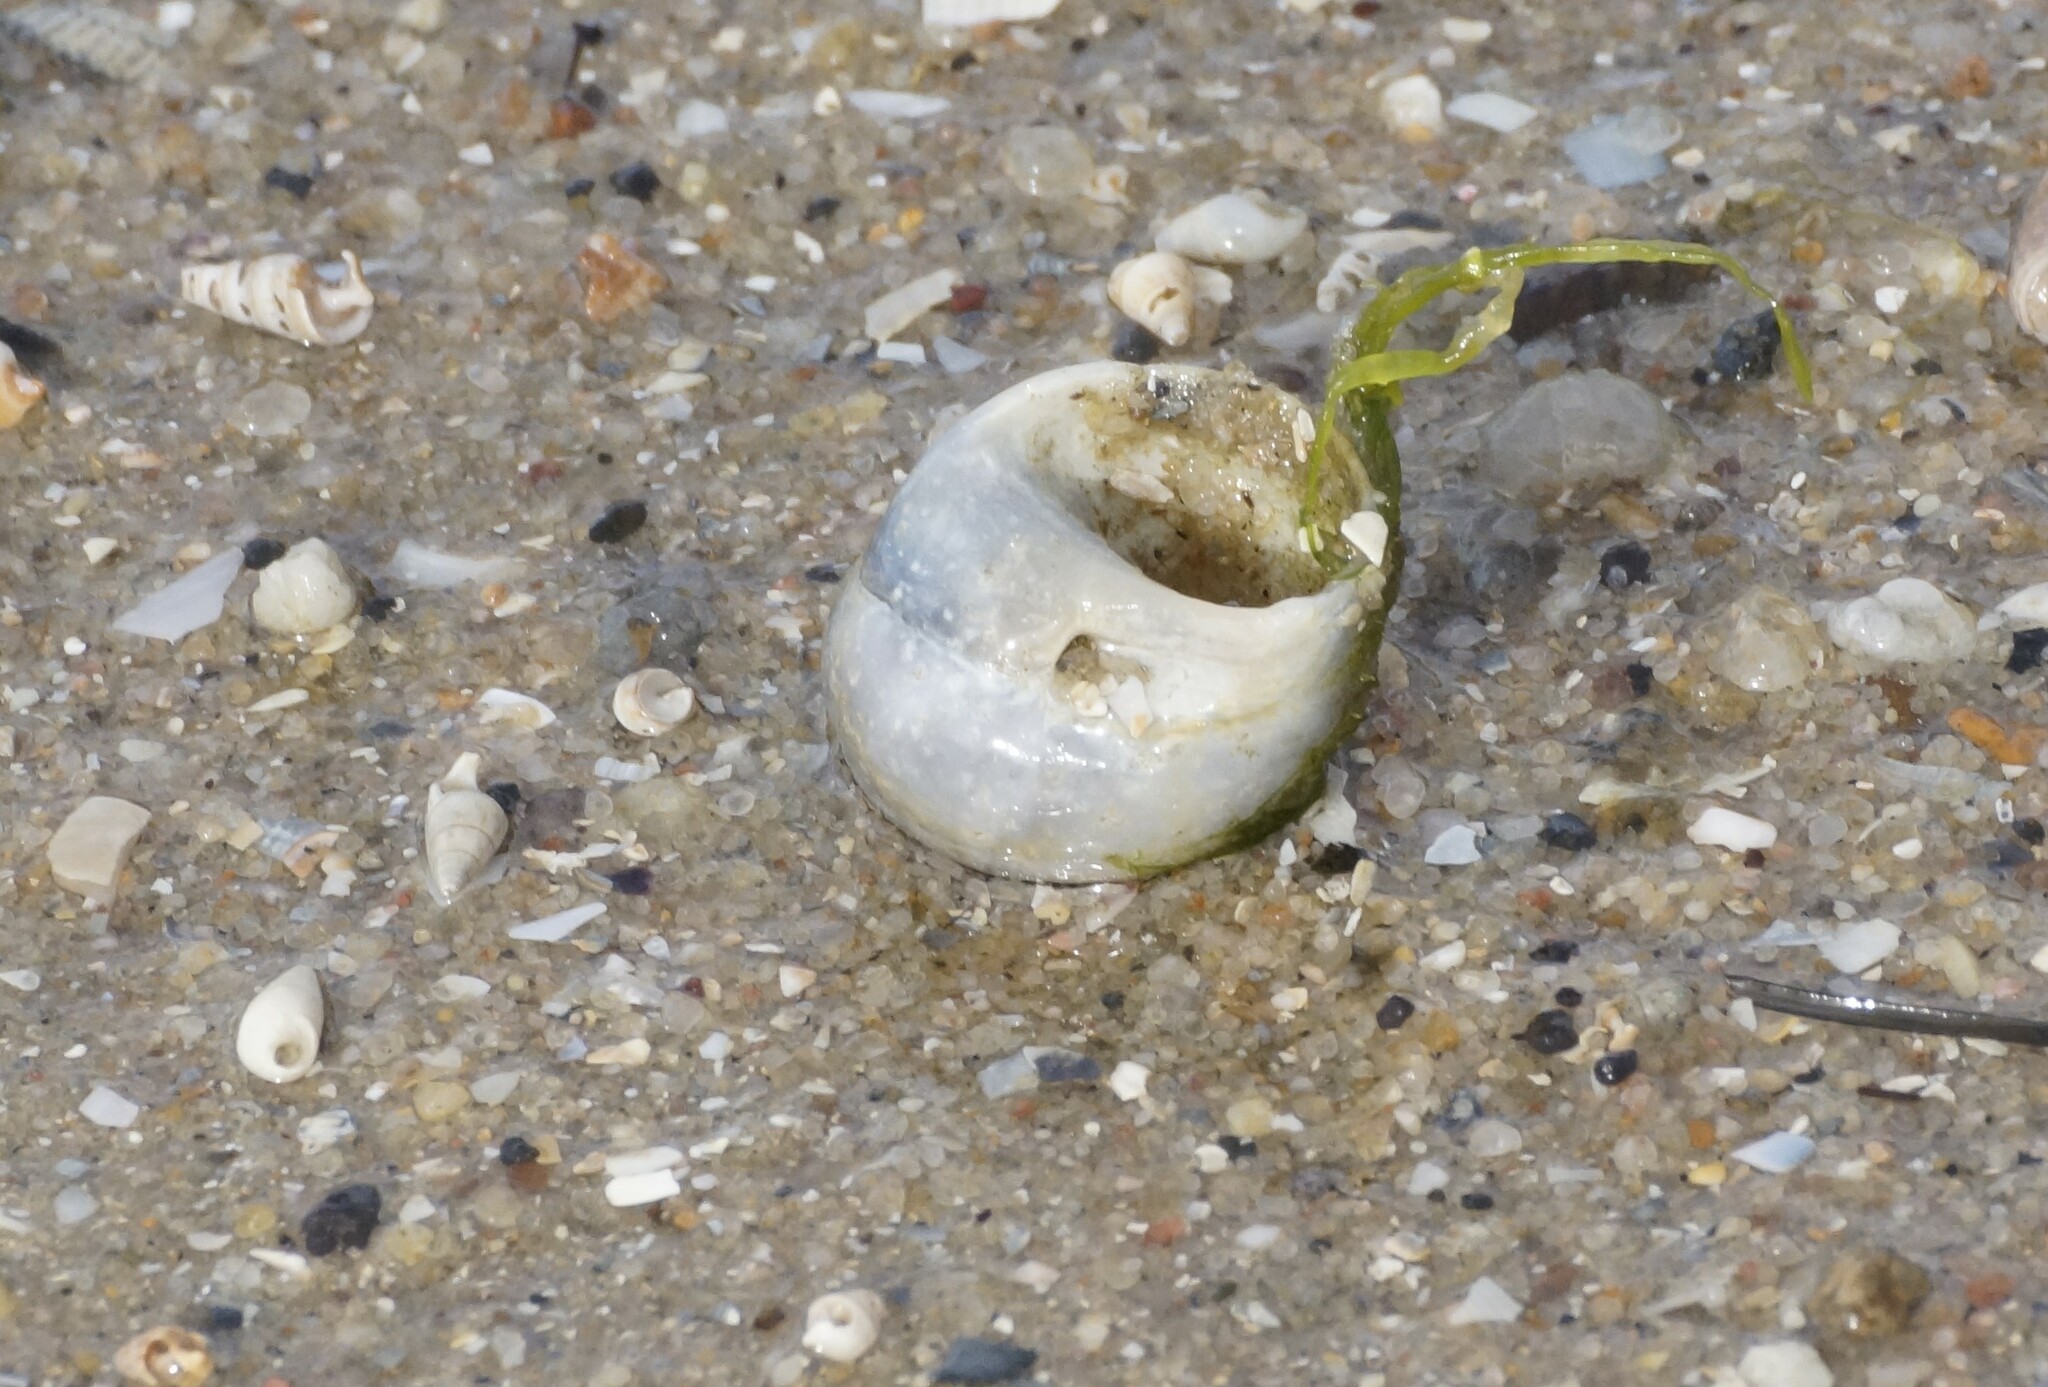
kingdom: Animalia
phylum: Mollusca
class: Gastropoda
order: Littorinimorpha
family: Naticidae
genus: Conuber
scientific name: Conuber conicum
